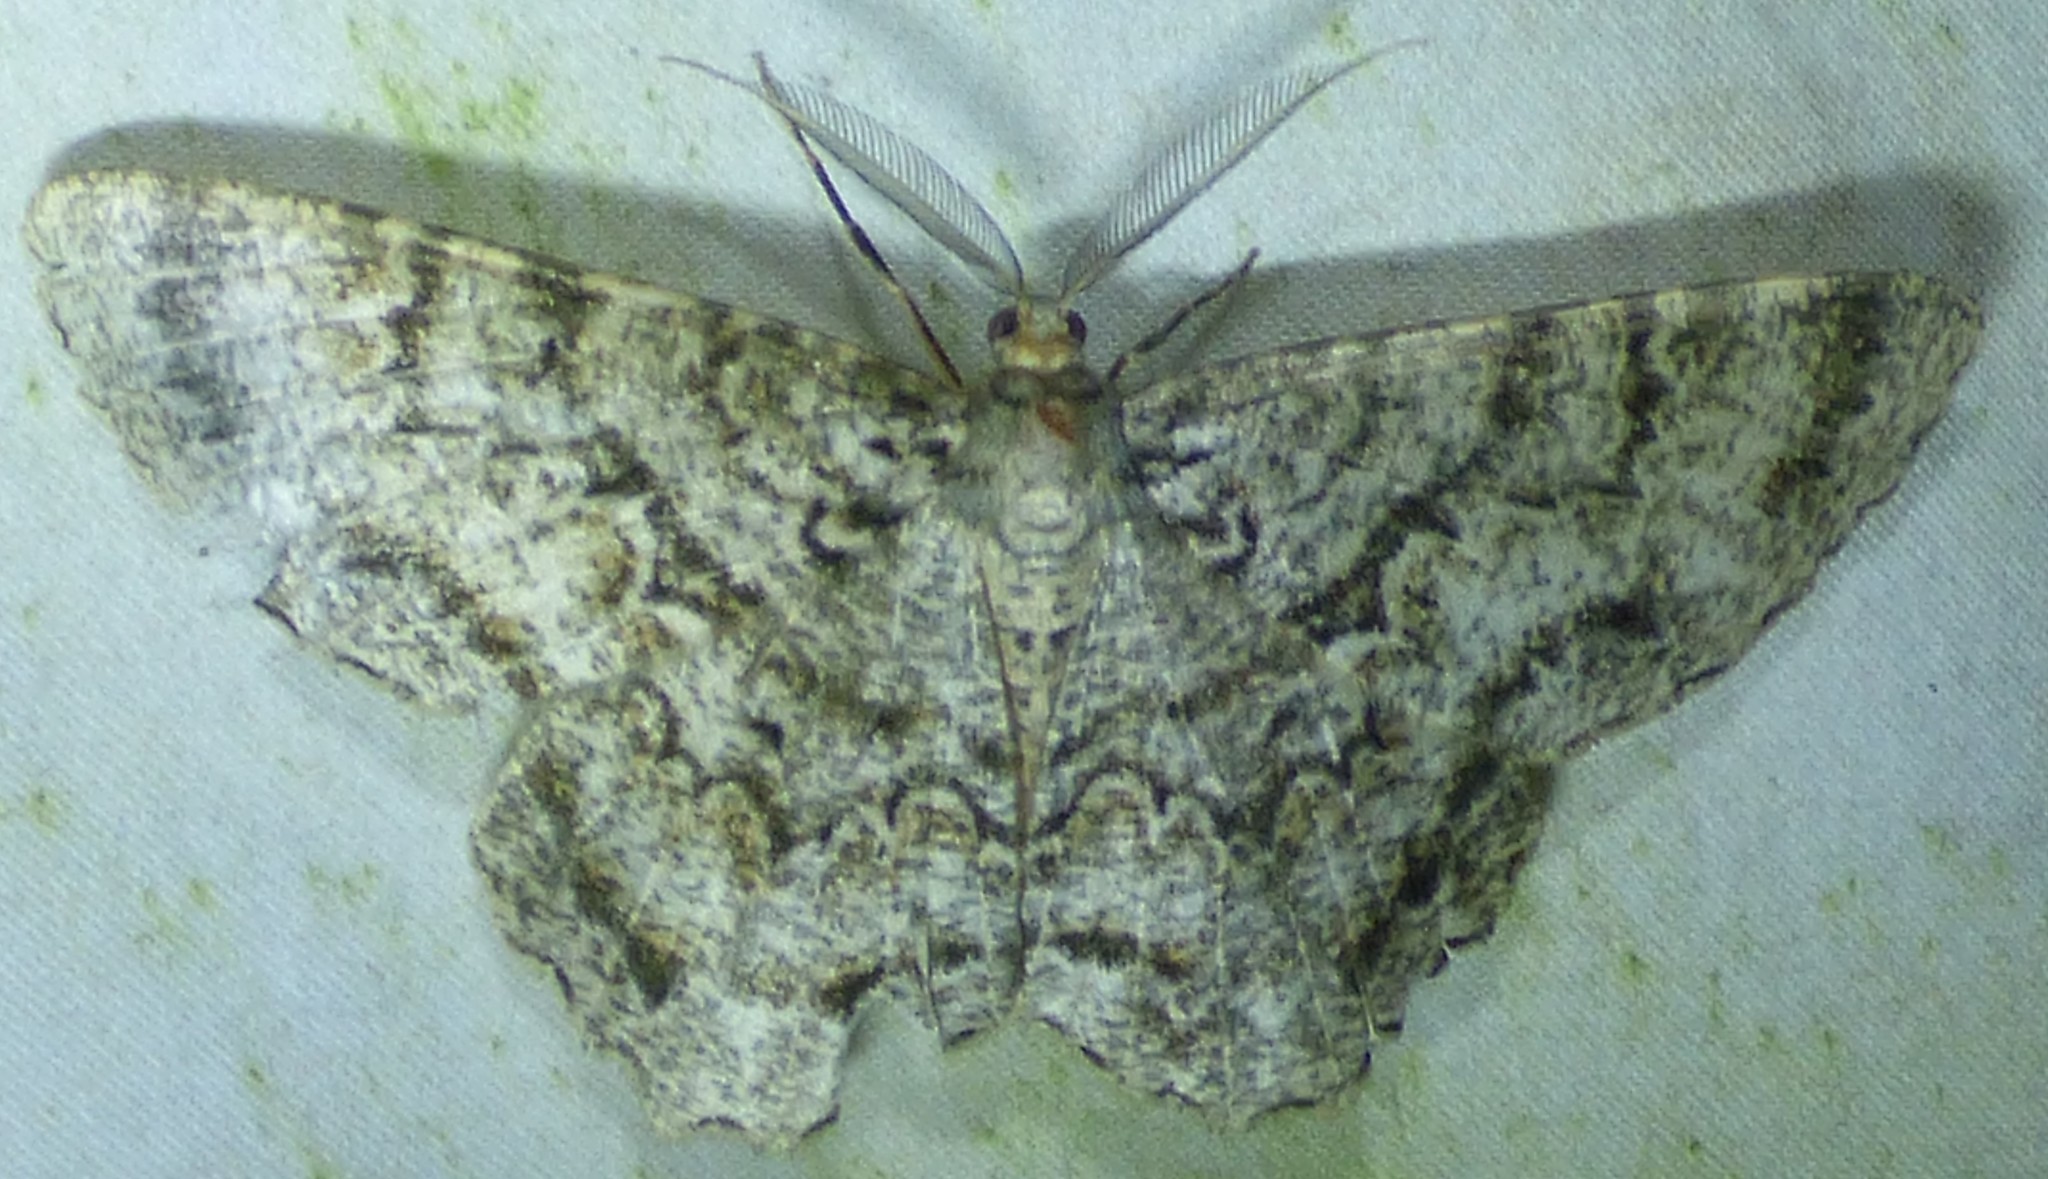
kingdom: Animalia
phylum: Arthropoda
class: Insecta
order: Lepidoptera
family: Geometridae
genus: Epimecis
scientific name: Epimecis hortaria
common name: Tulip-tree beauty
